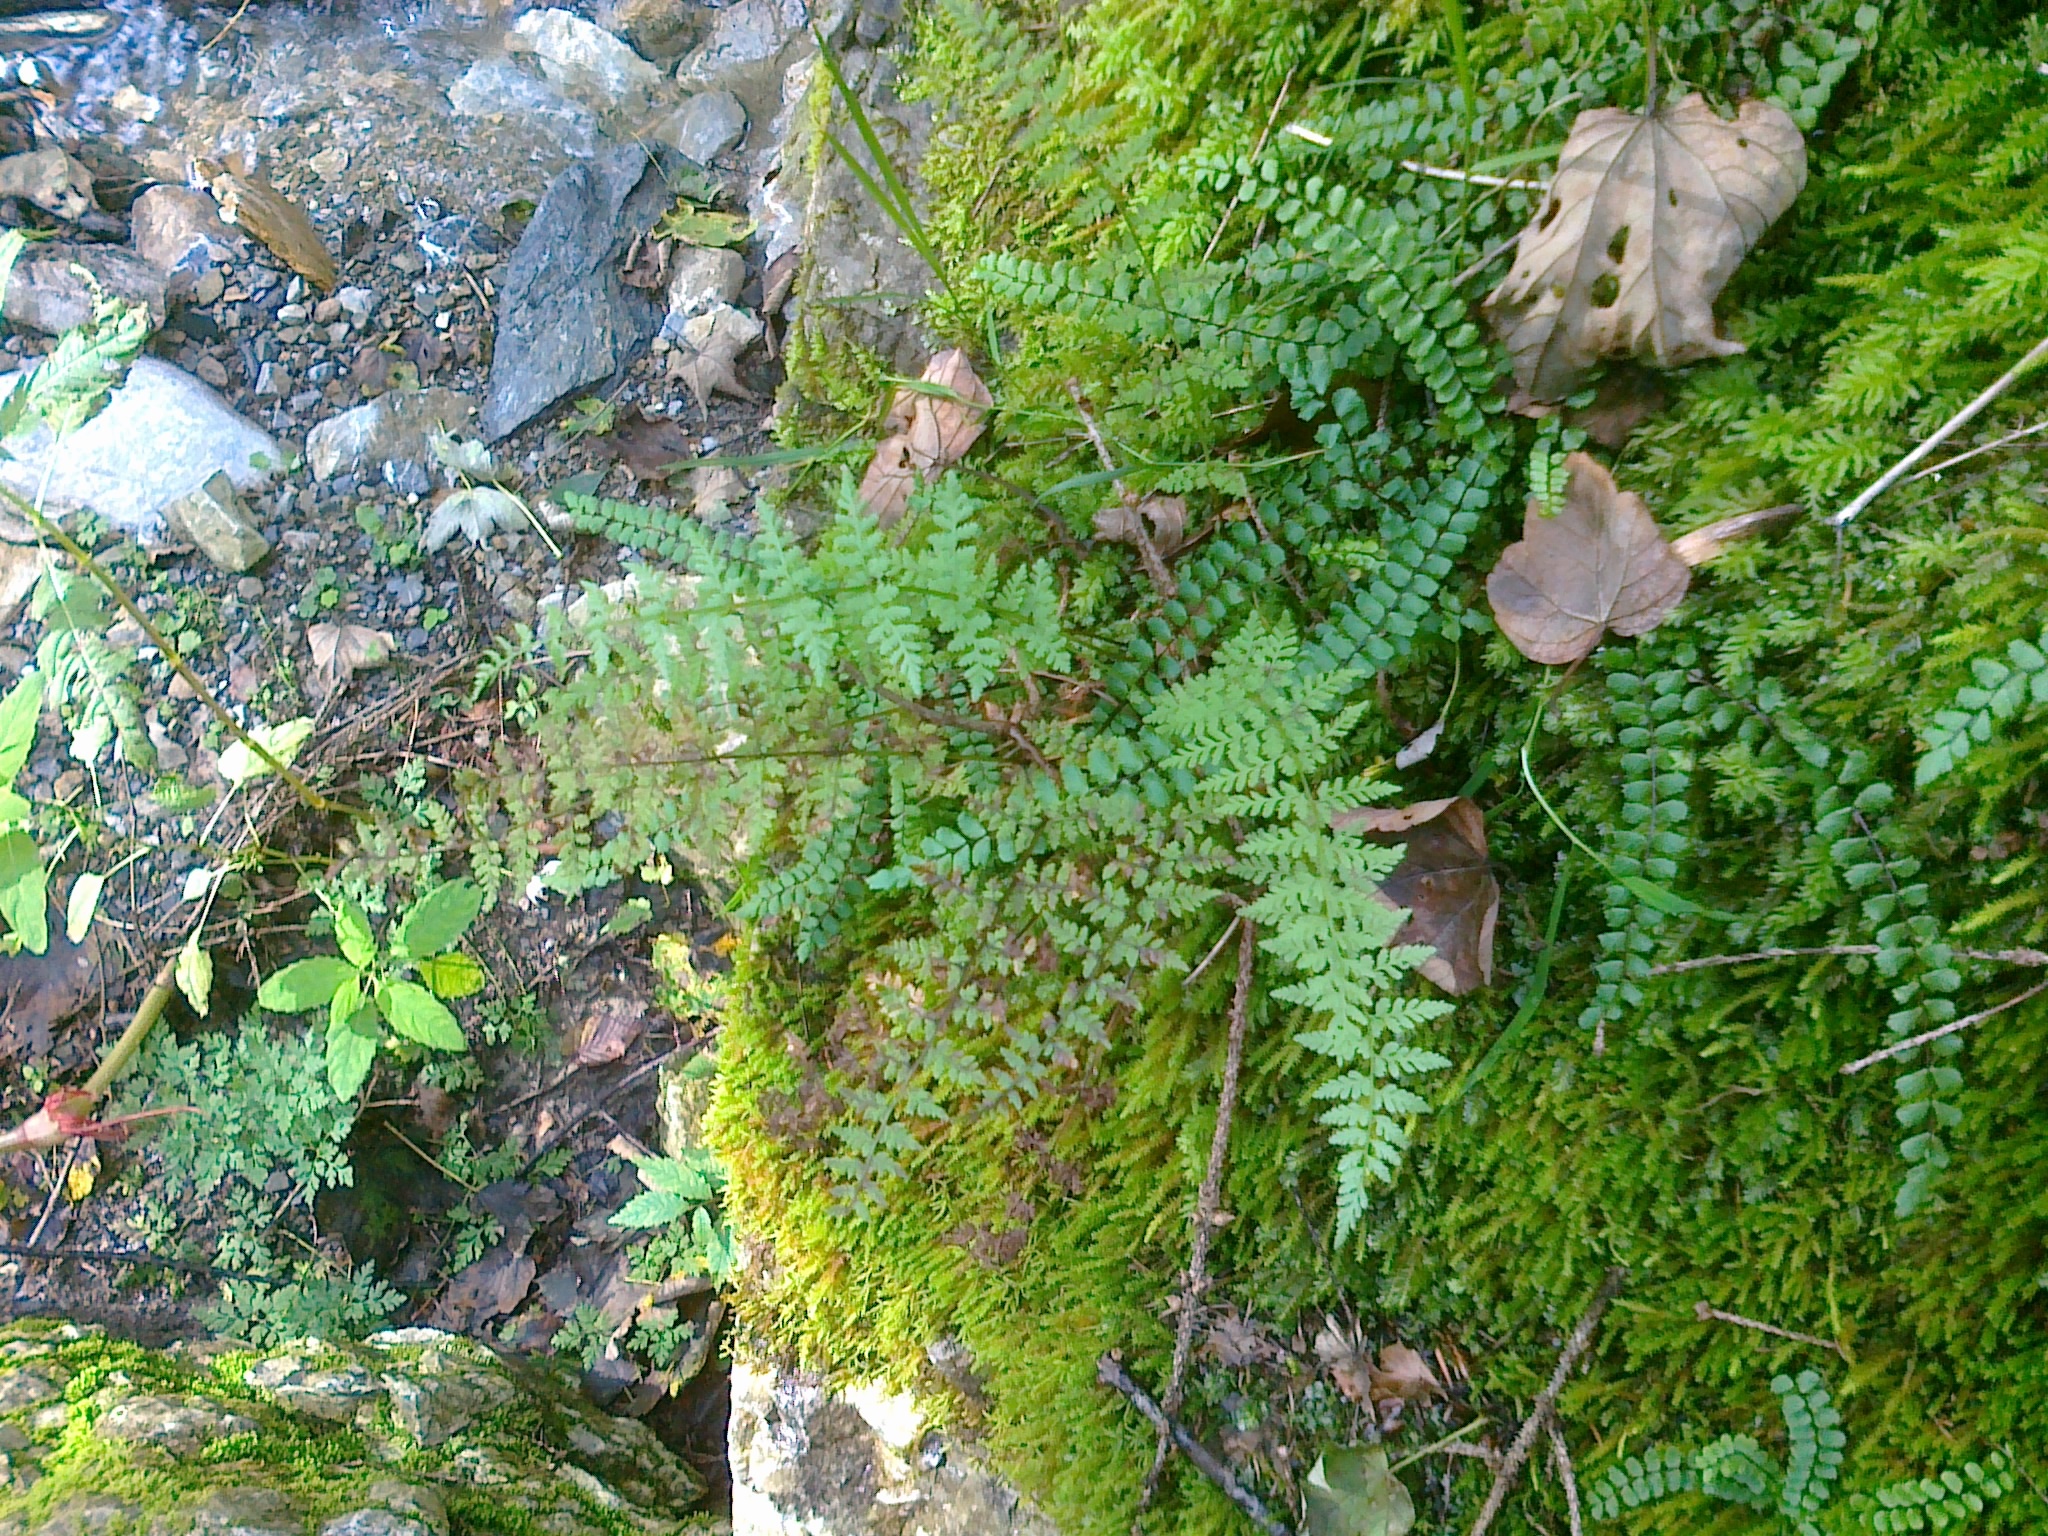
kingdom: Plantae
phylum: Tracheophyta
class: Polypodiopsida
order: Polypodiales
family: Cystopteridaceae
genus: Cystopteris
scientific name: Cystopteris fragilis
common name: Brittle bladder fern
